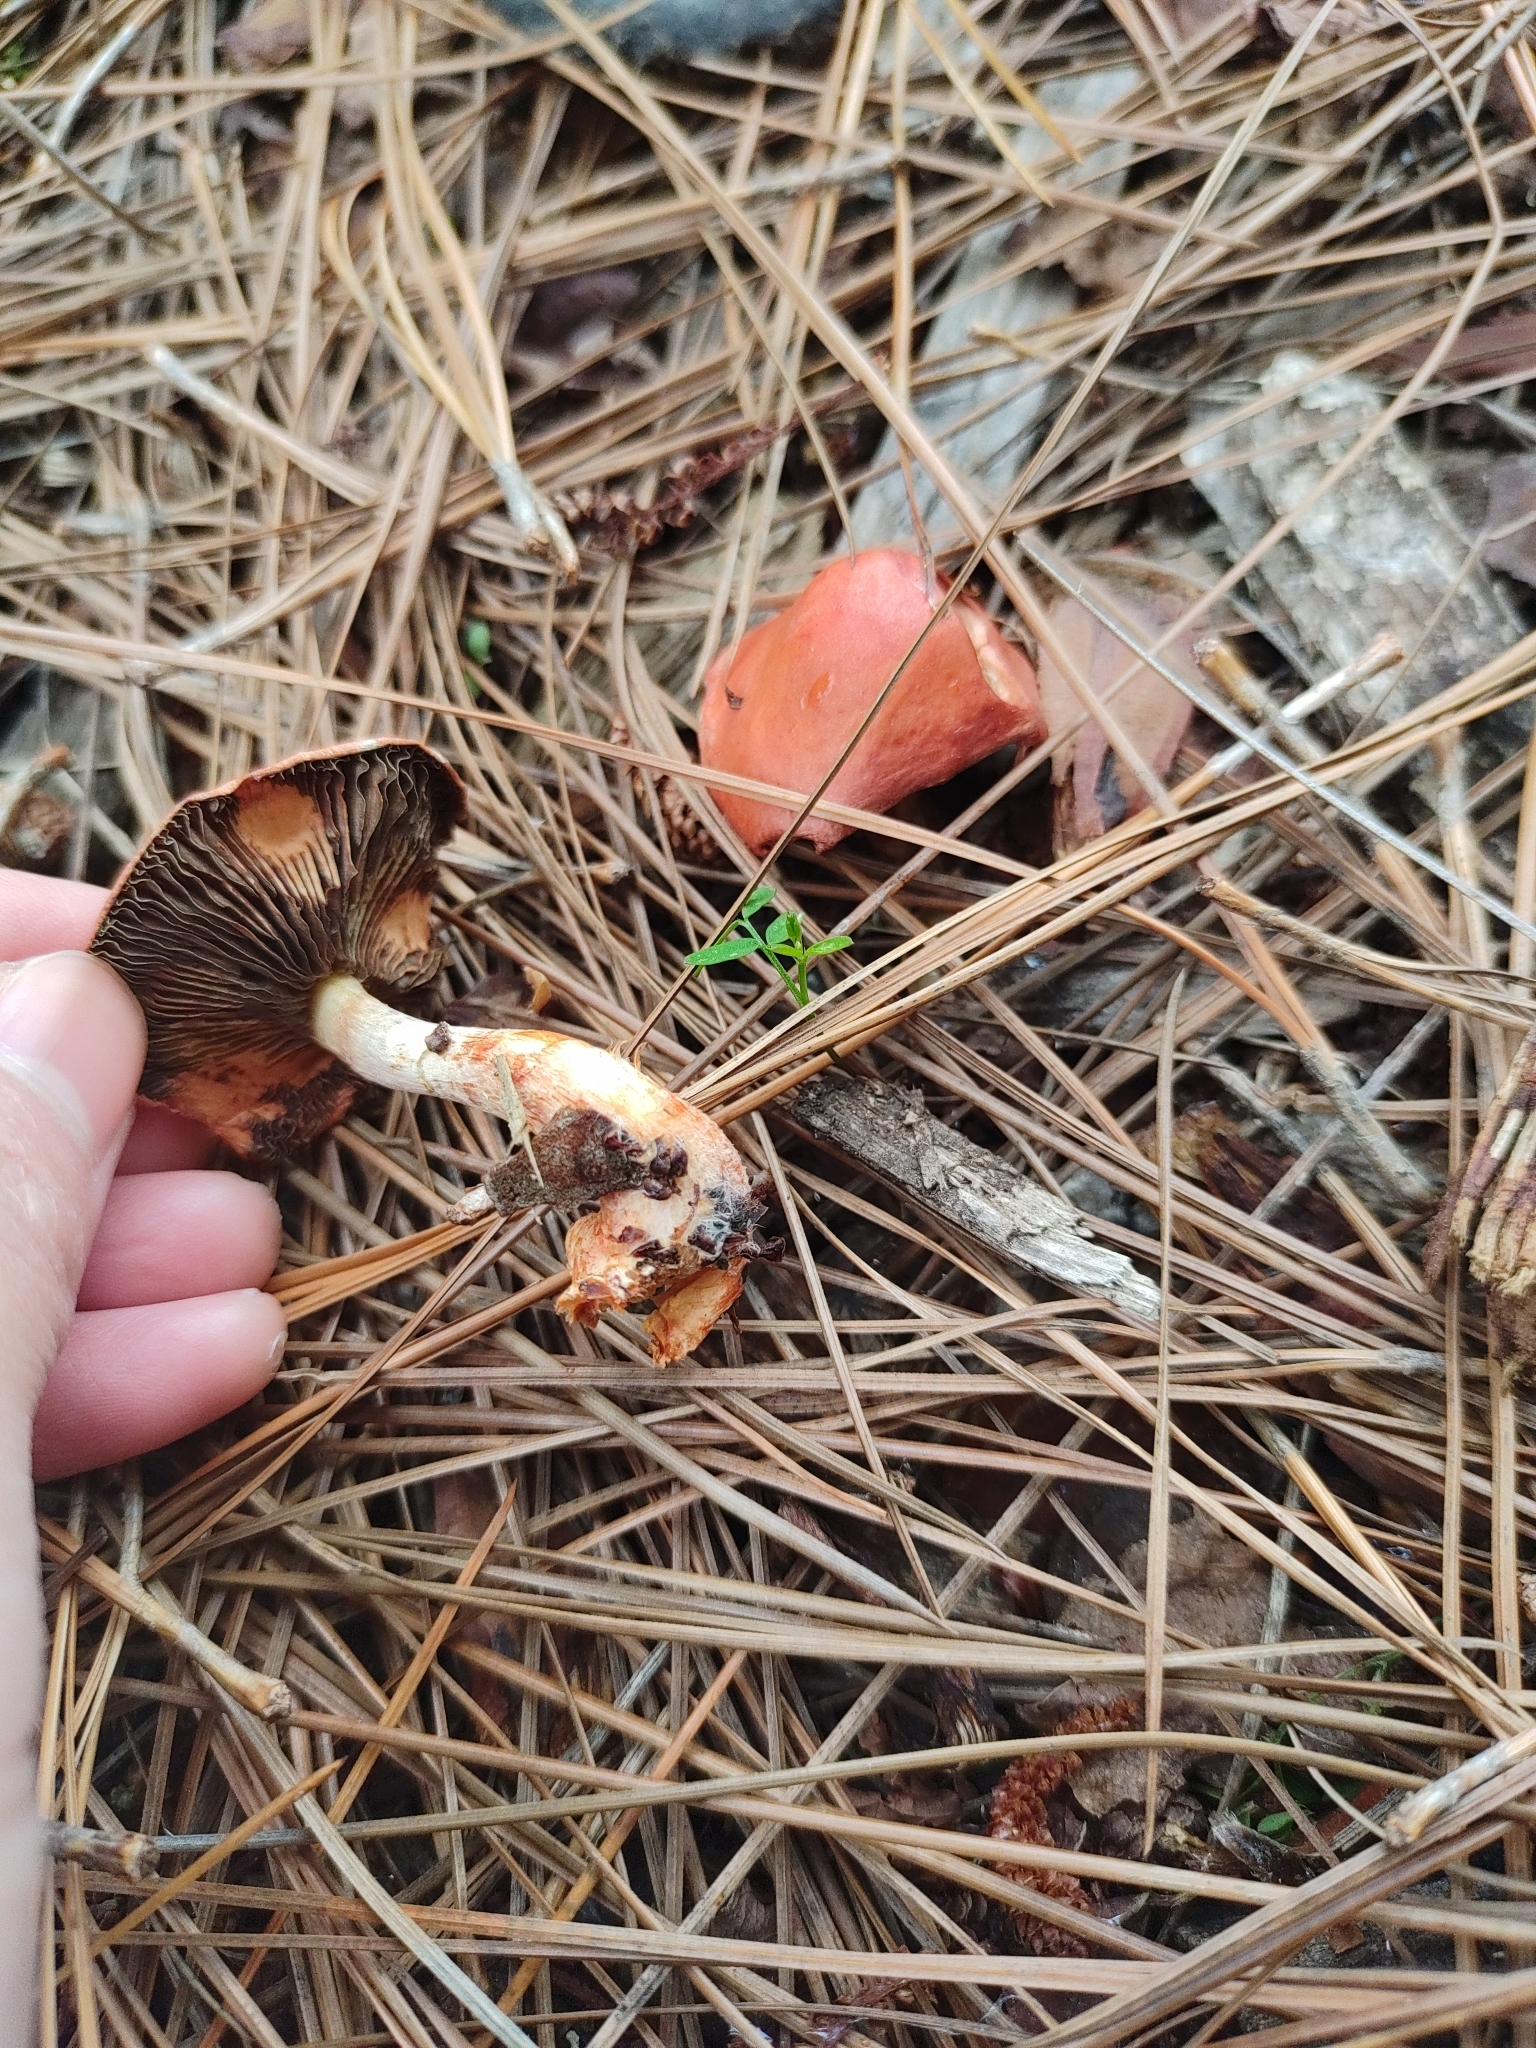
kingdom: Fungi
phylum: Basidiomycota
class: Agaricomycetes
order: Agaricales
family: Strophariaceae
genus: Leratiomyces
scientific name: Leratiomyces ceres
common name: Redlead roundhead
